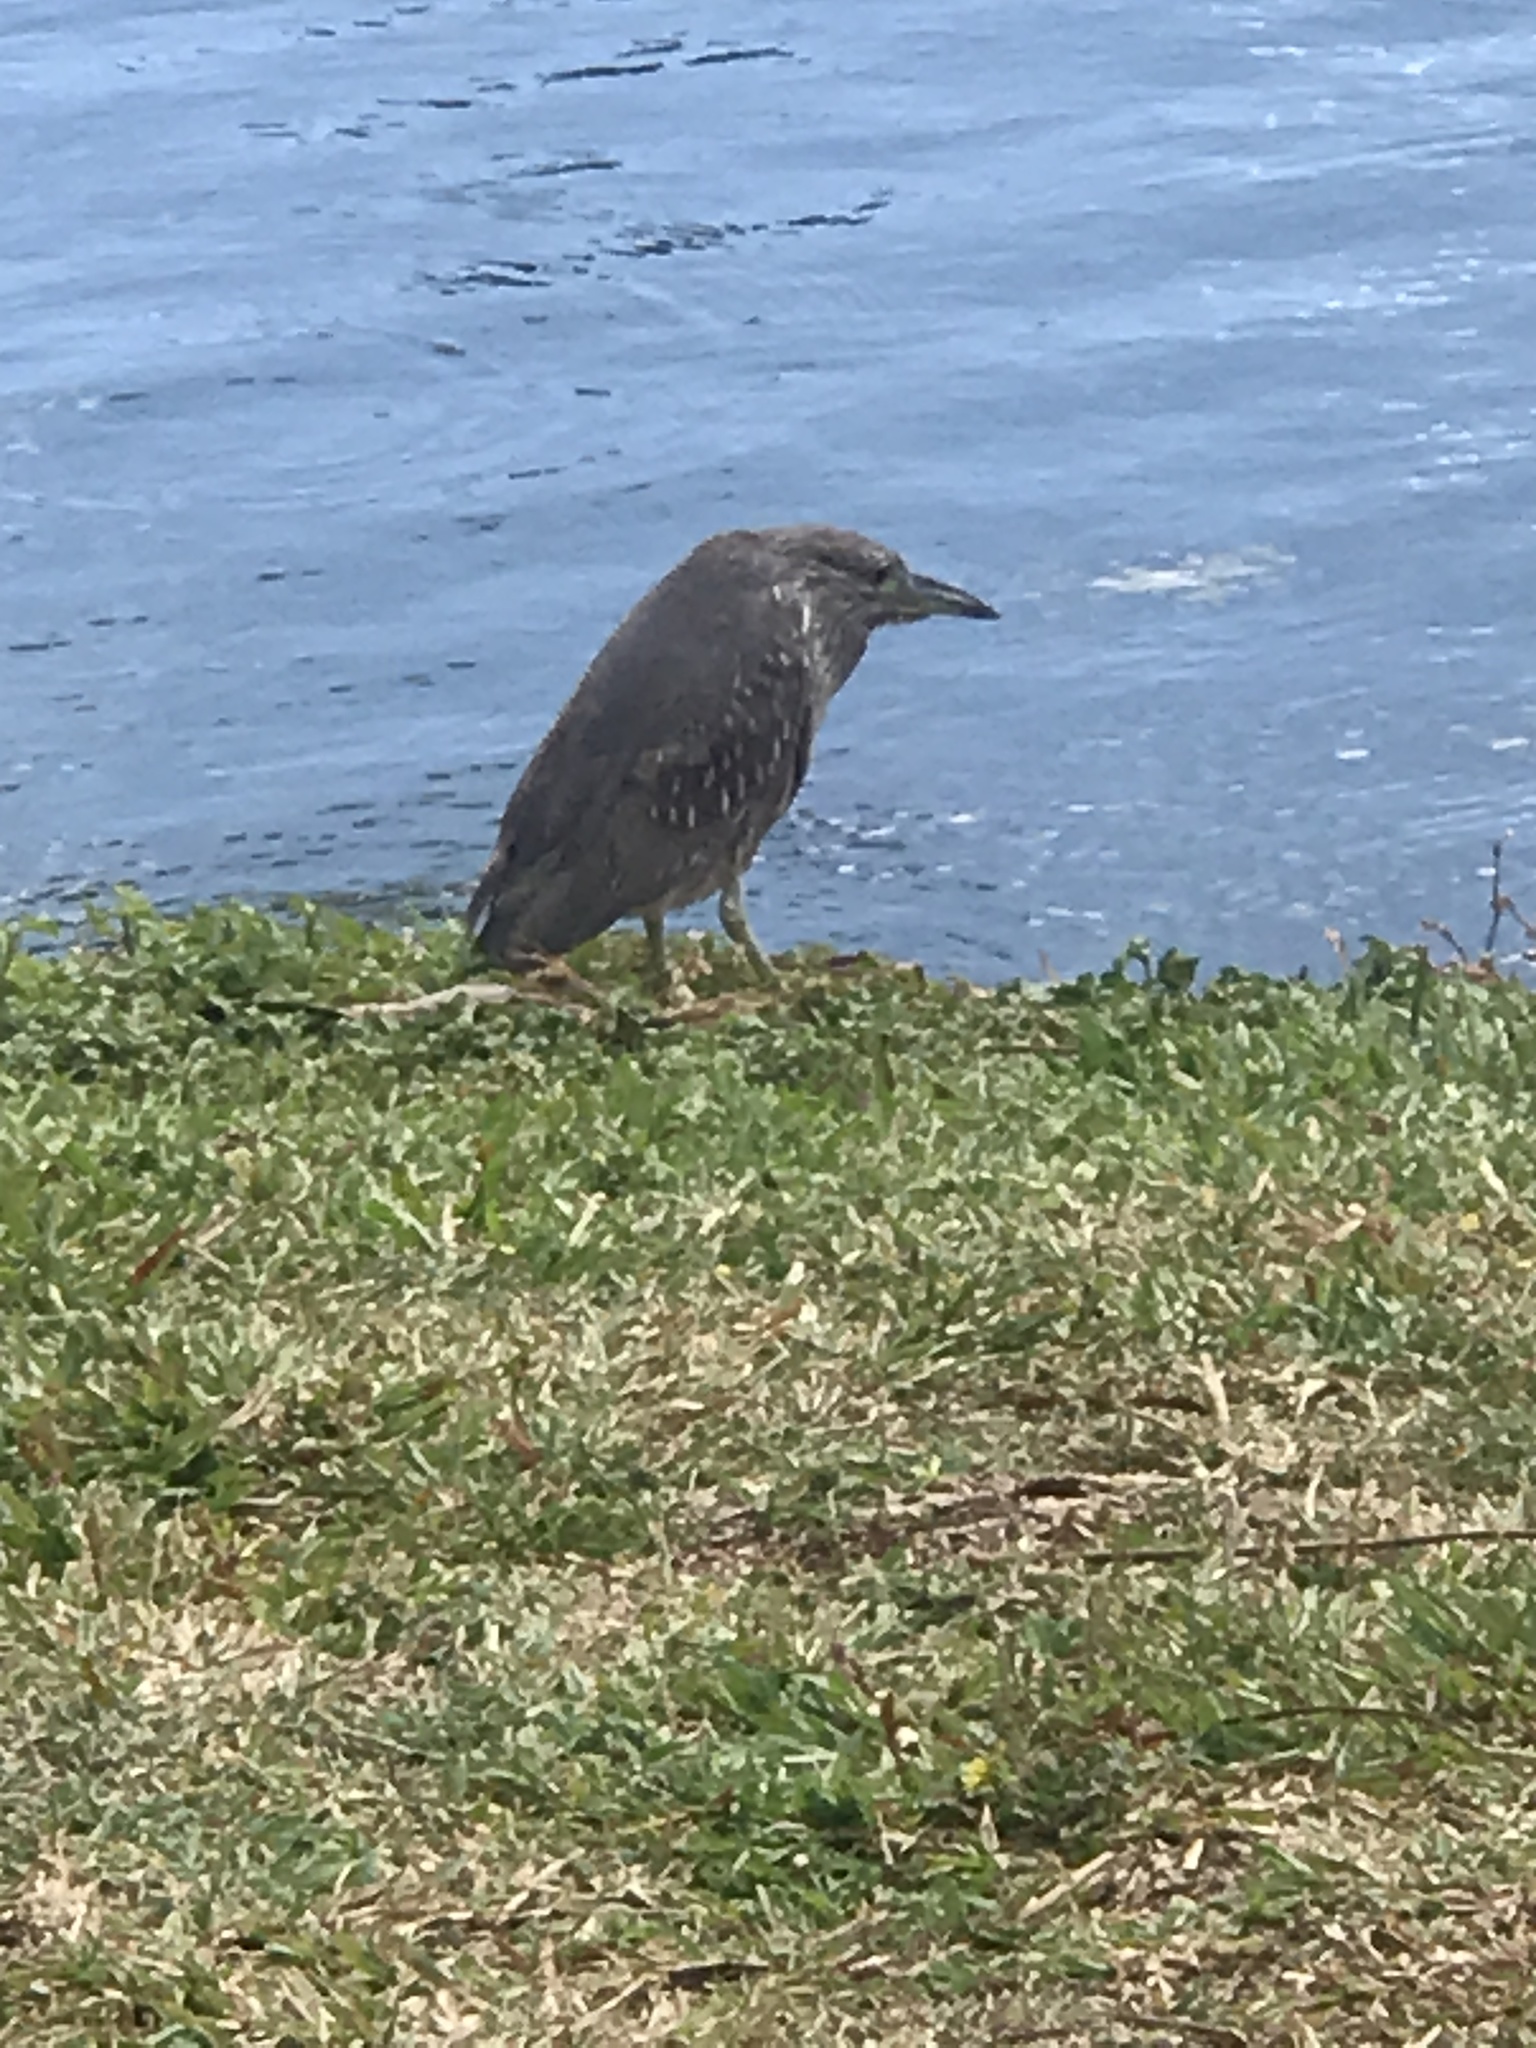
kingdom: Animalia
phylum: Chordata
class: Aves
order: Pelecaniformes
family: Ardeidae
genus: Nycticorax
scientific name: Nycticorax nycticorax
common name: Black-crowned night heron
